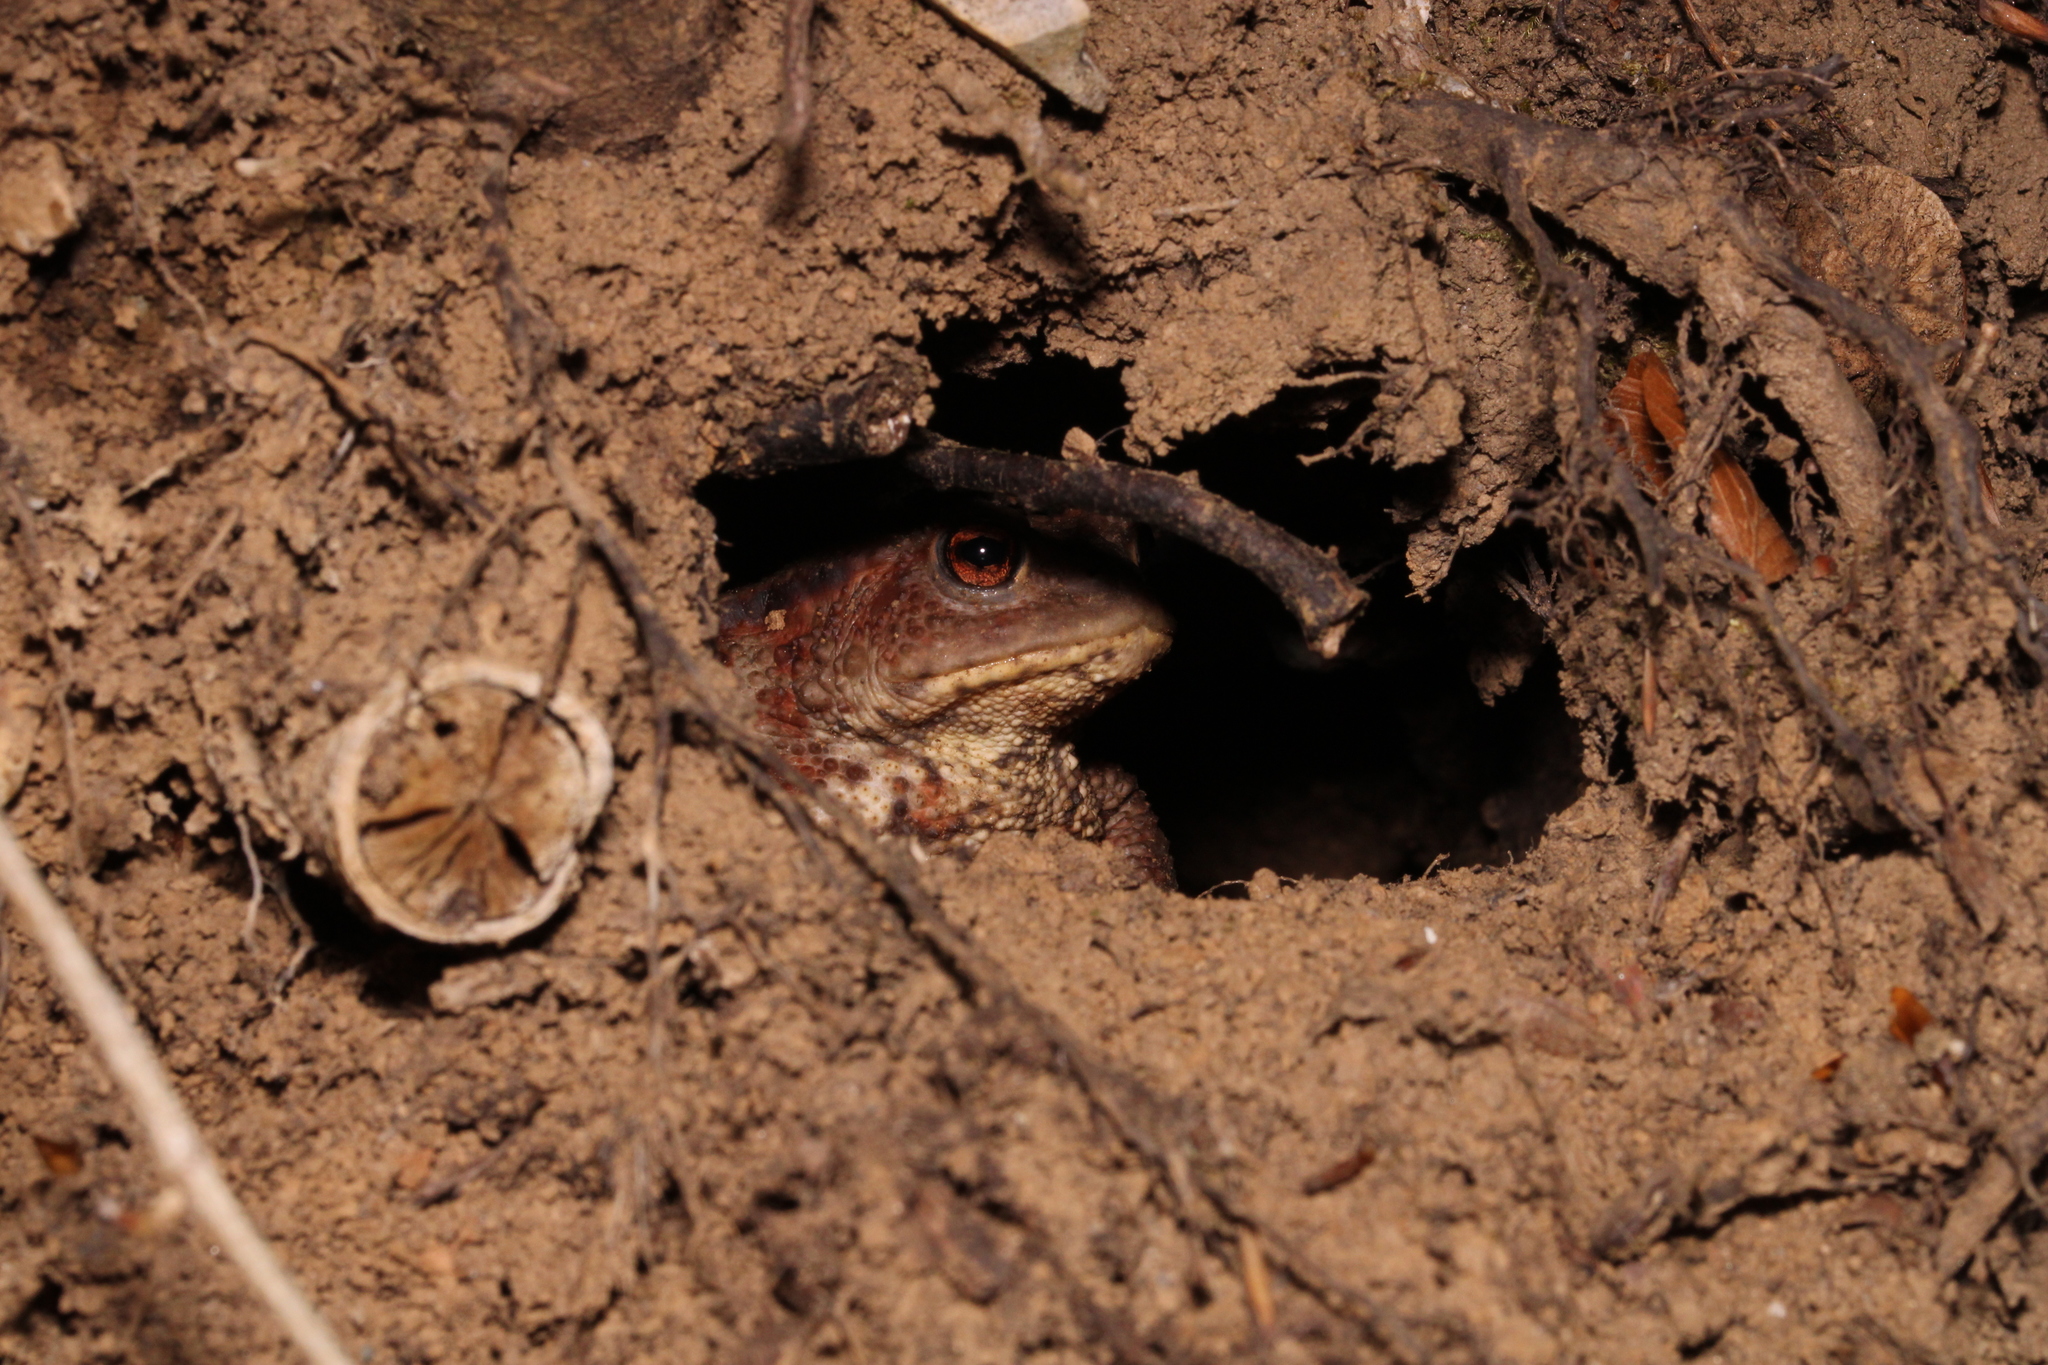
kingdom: Animalia
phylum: Chordata
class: Amphibia
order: Anura
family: Bufonidae
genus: Bufo
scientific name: Bufo bufo
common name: Common toad
